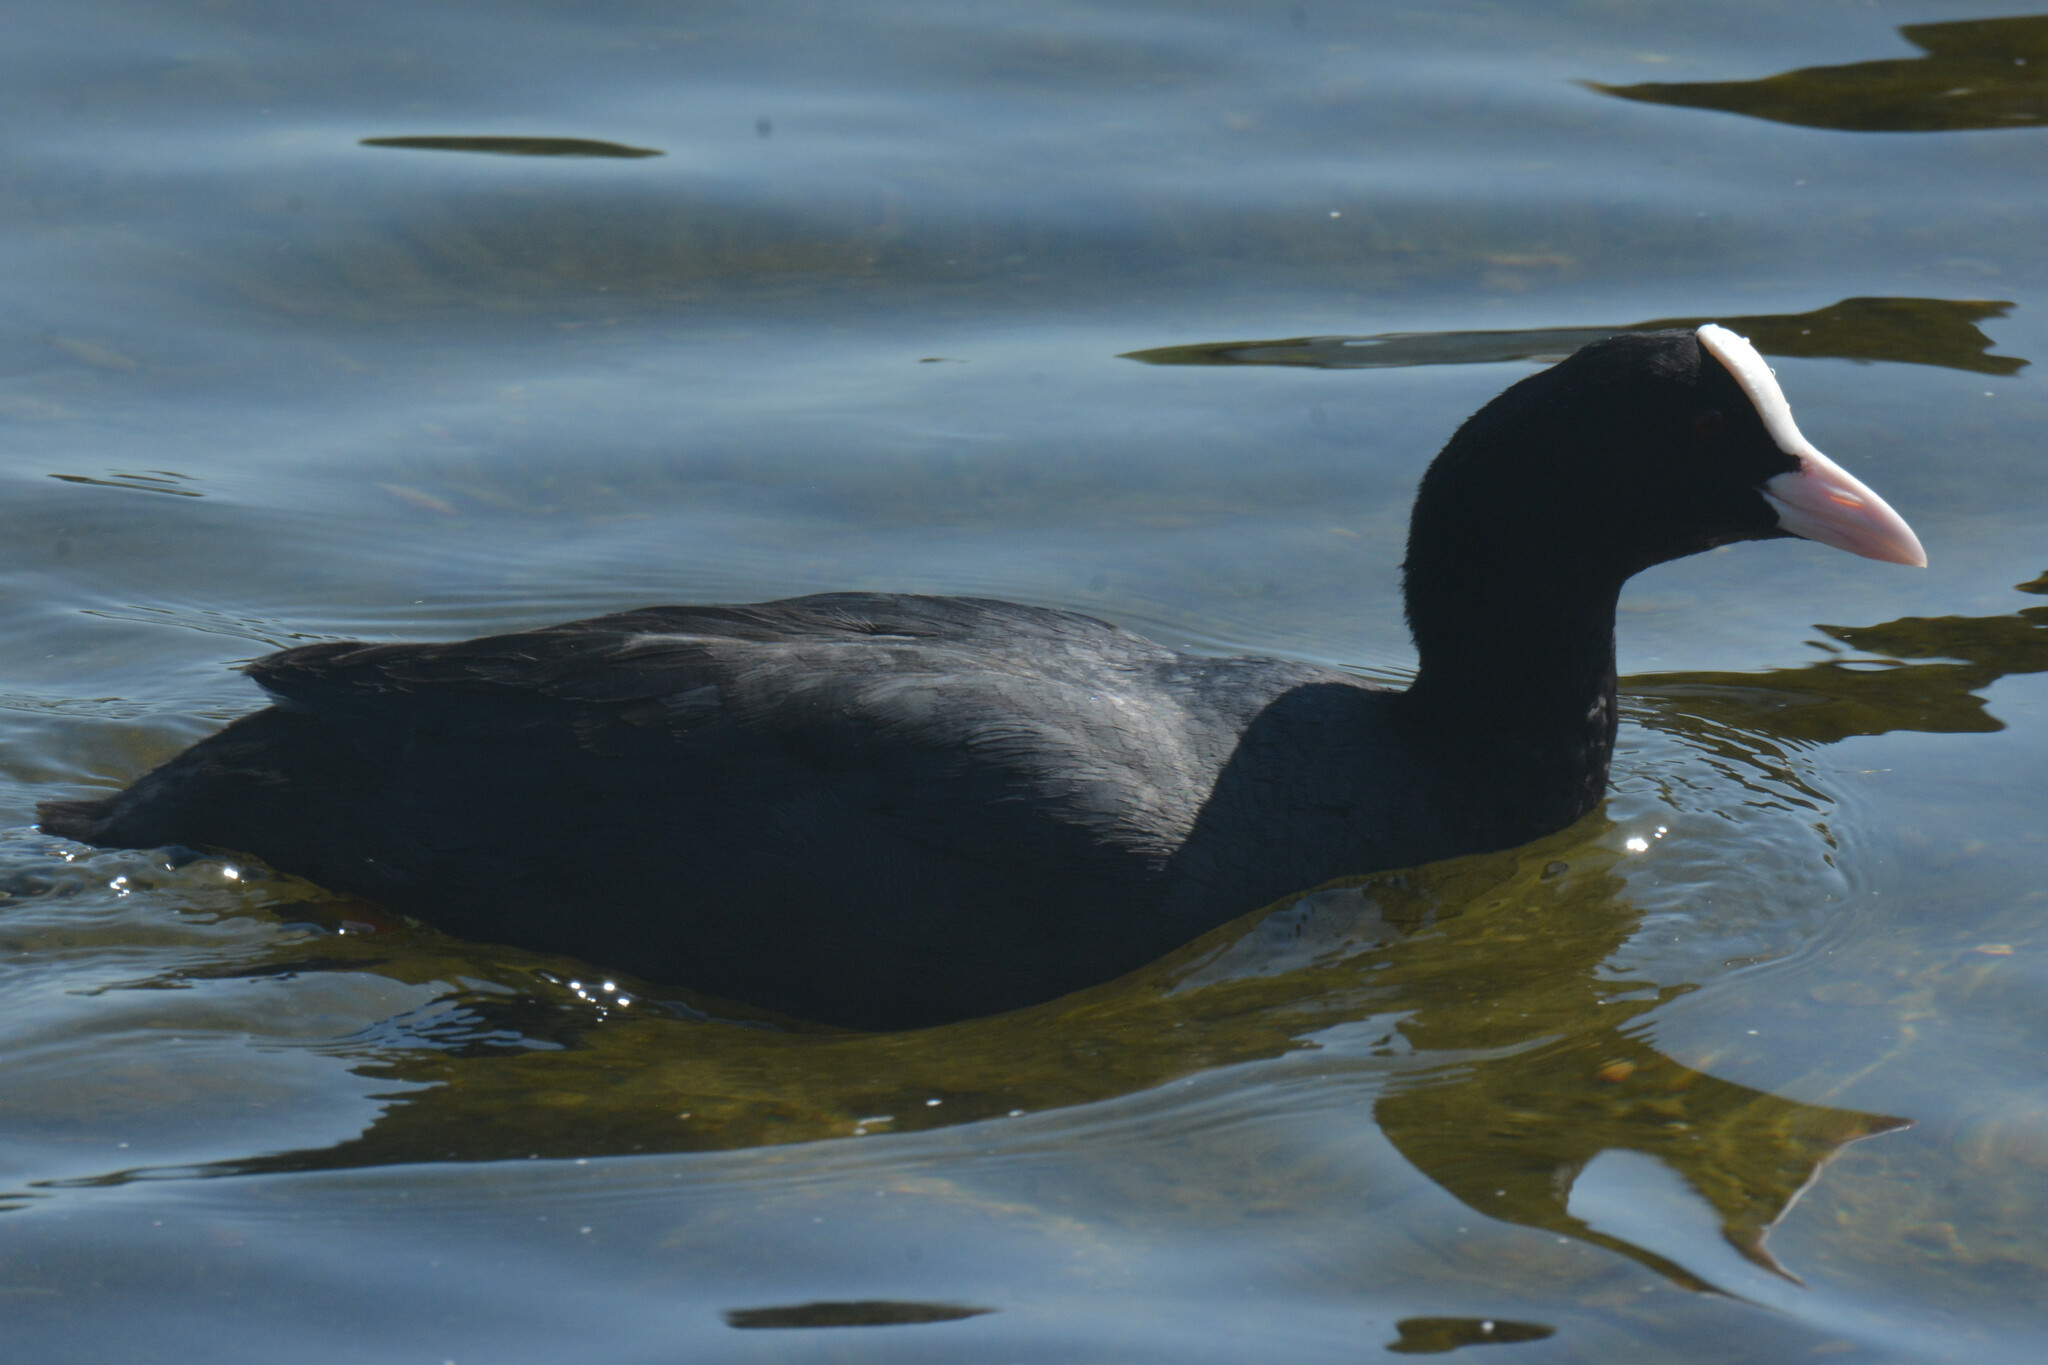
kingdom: Animalia
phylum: Chordata
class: Aves
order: Gruiformes
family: Rallidae
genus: Fulica
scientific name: Fulica atra
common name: Eurasian coot
